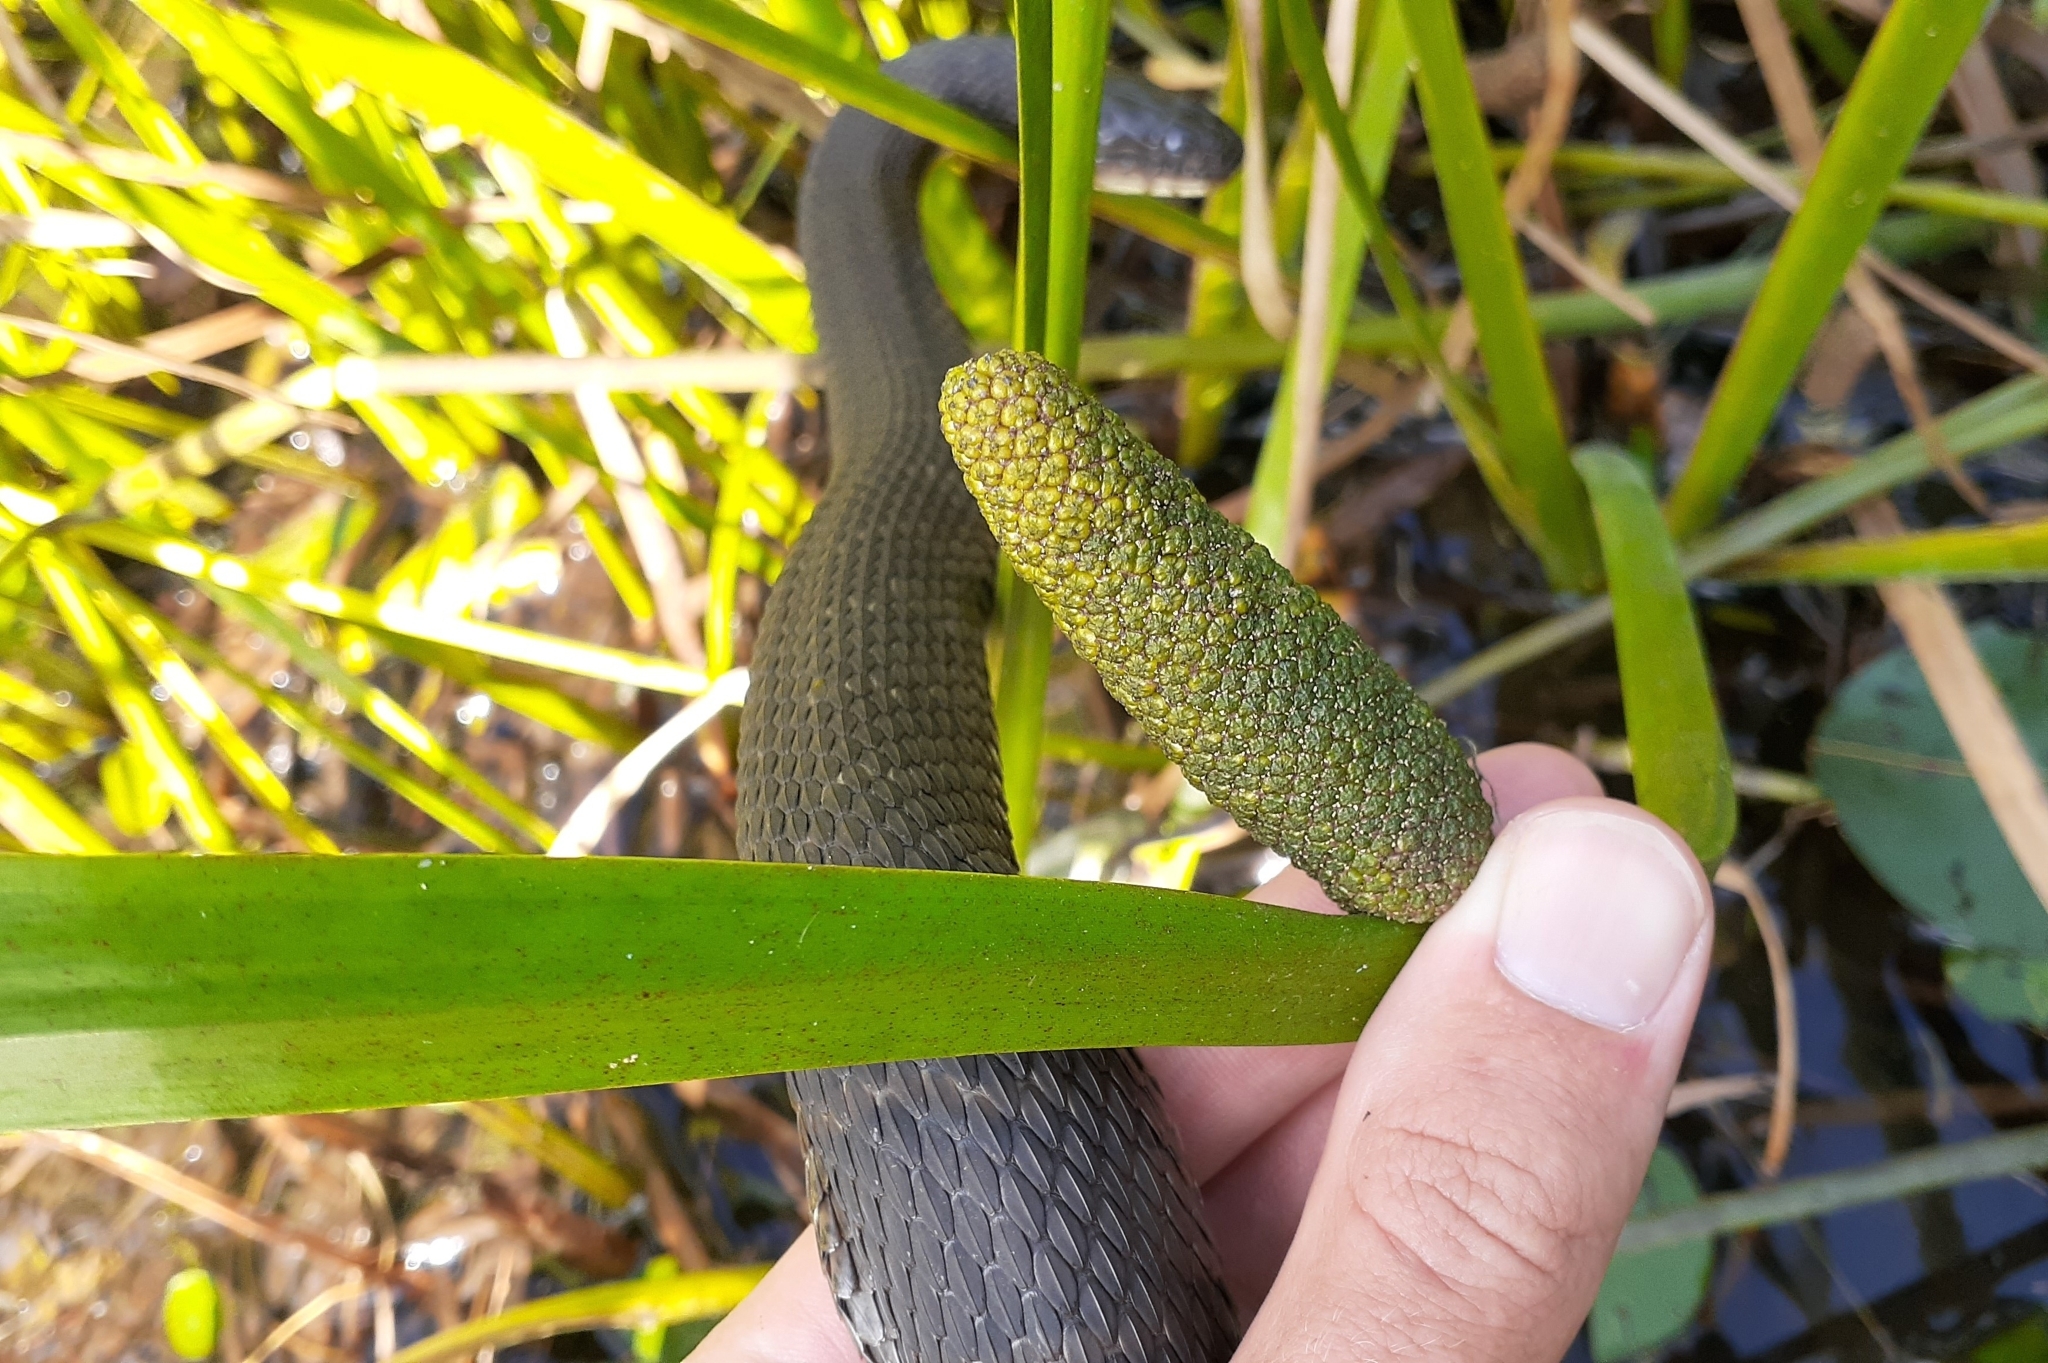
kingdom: Plantae
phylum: Tracheophyta
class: Liliopsida
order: Acorales
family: Acoraceae
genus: Acorus
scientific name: Acorus calamus
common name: Sweet-flag
